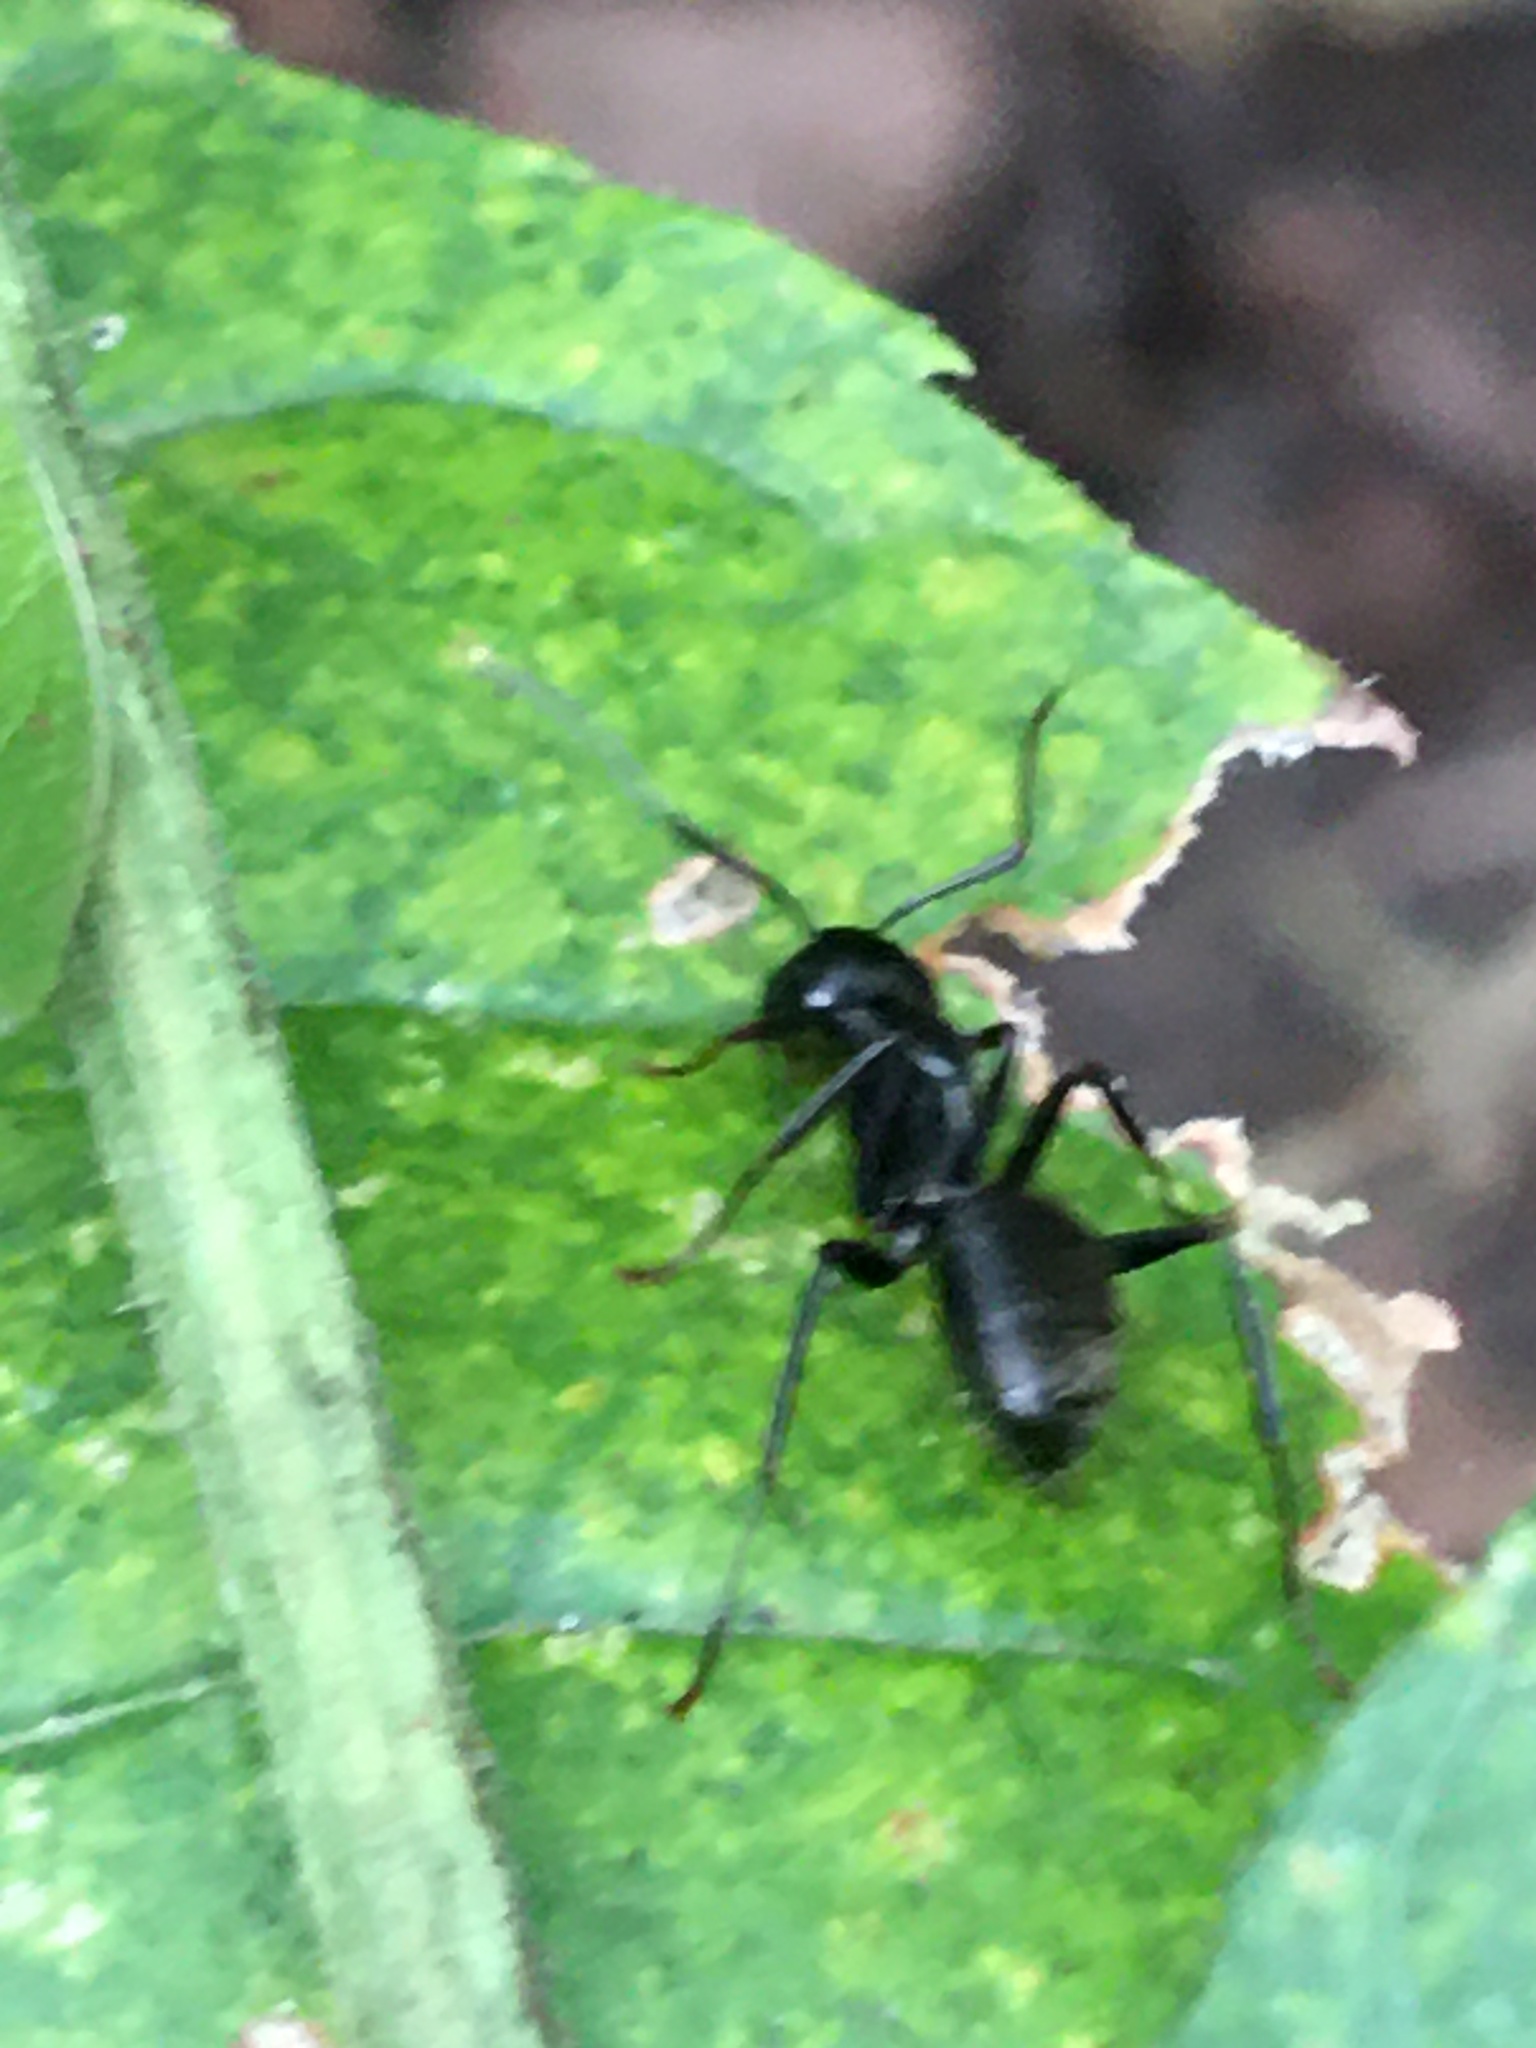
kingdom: Animalia
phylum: Arthropoda
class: Insecta
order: Hymenoptera
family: Formicidae
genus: Camponotus
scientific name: Camponotus pennsylvanicus
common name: Black carpenter ant
